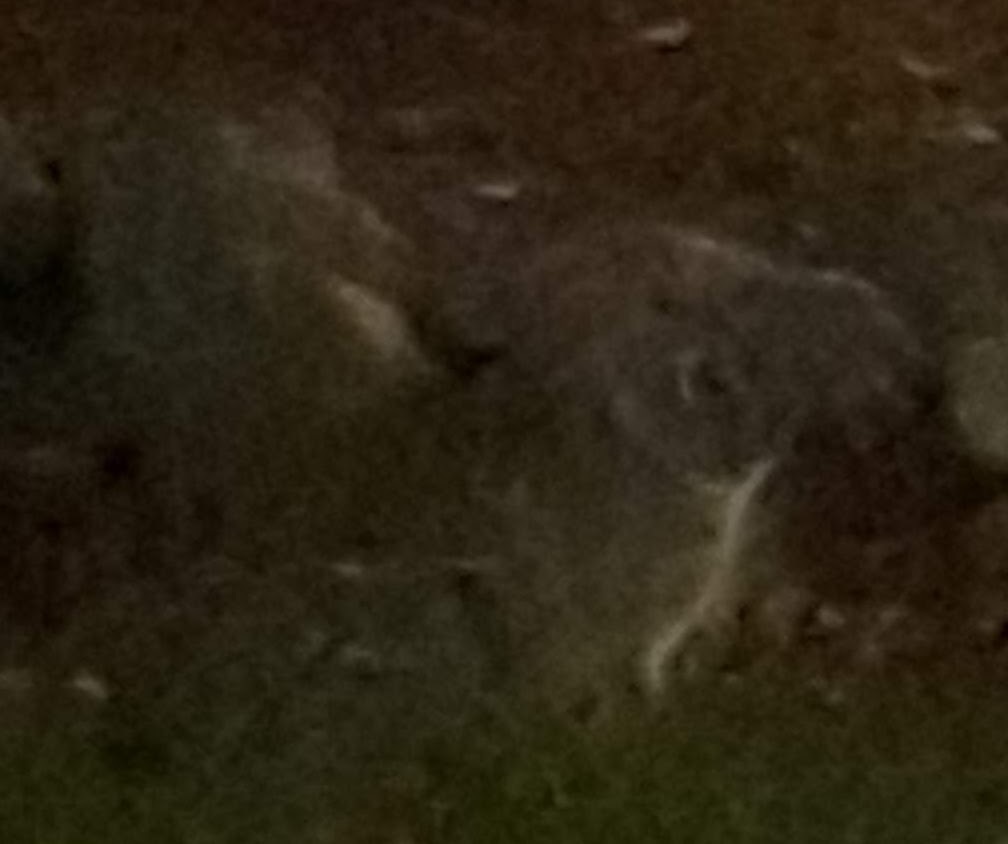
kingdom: Animalia
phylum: Chordata
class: Mammalia
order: Lagomorpha
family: Leporidae
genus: Sylvilagus
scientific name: Sylvilagus floridanus
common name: Eastern cottontail
